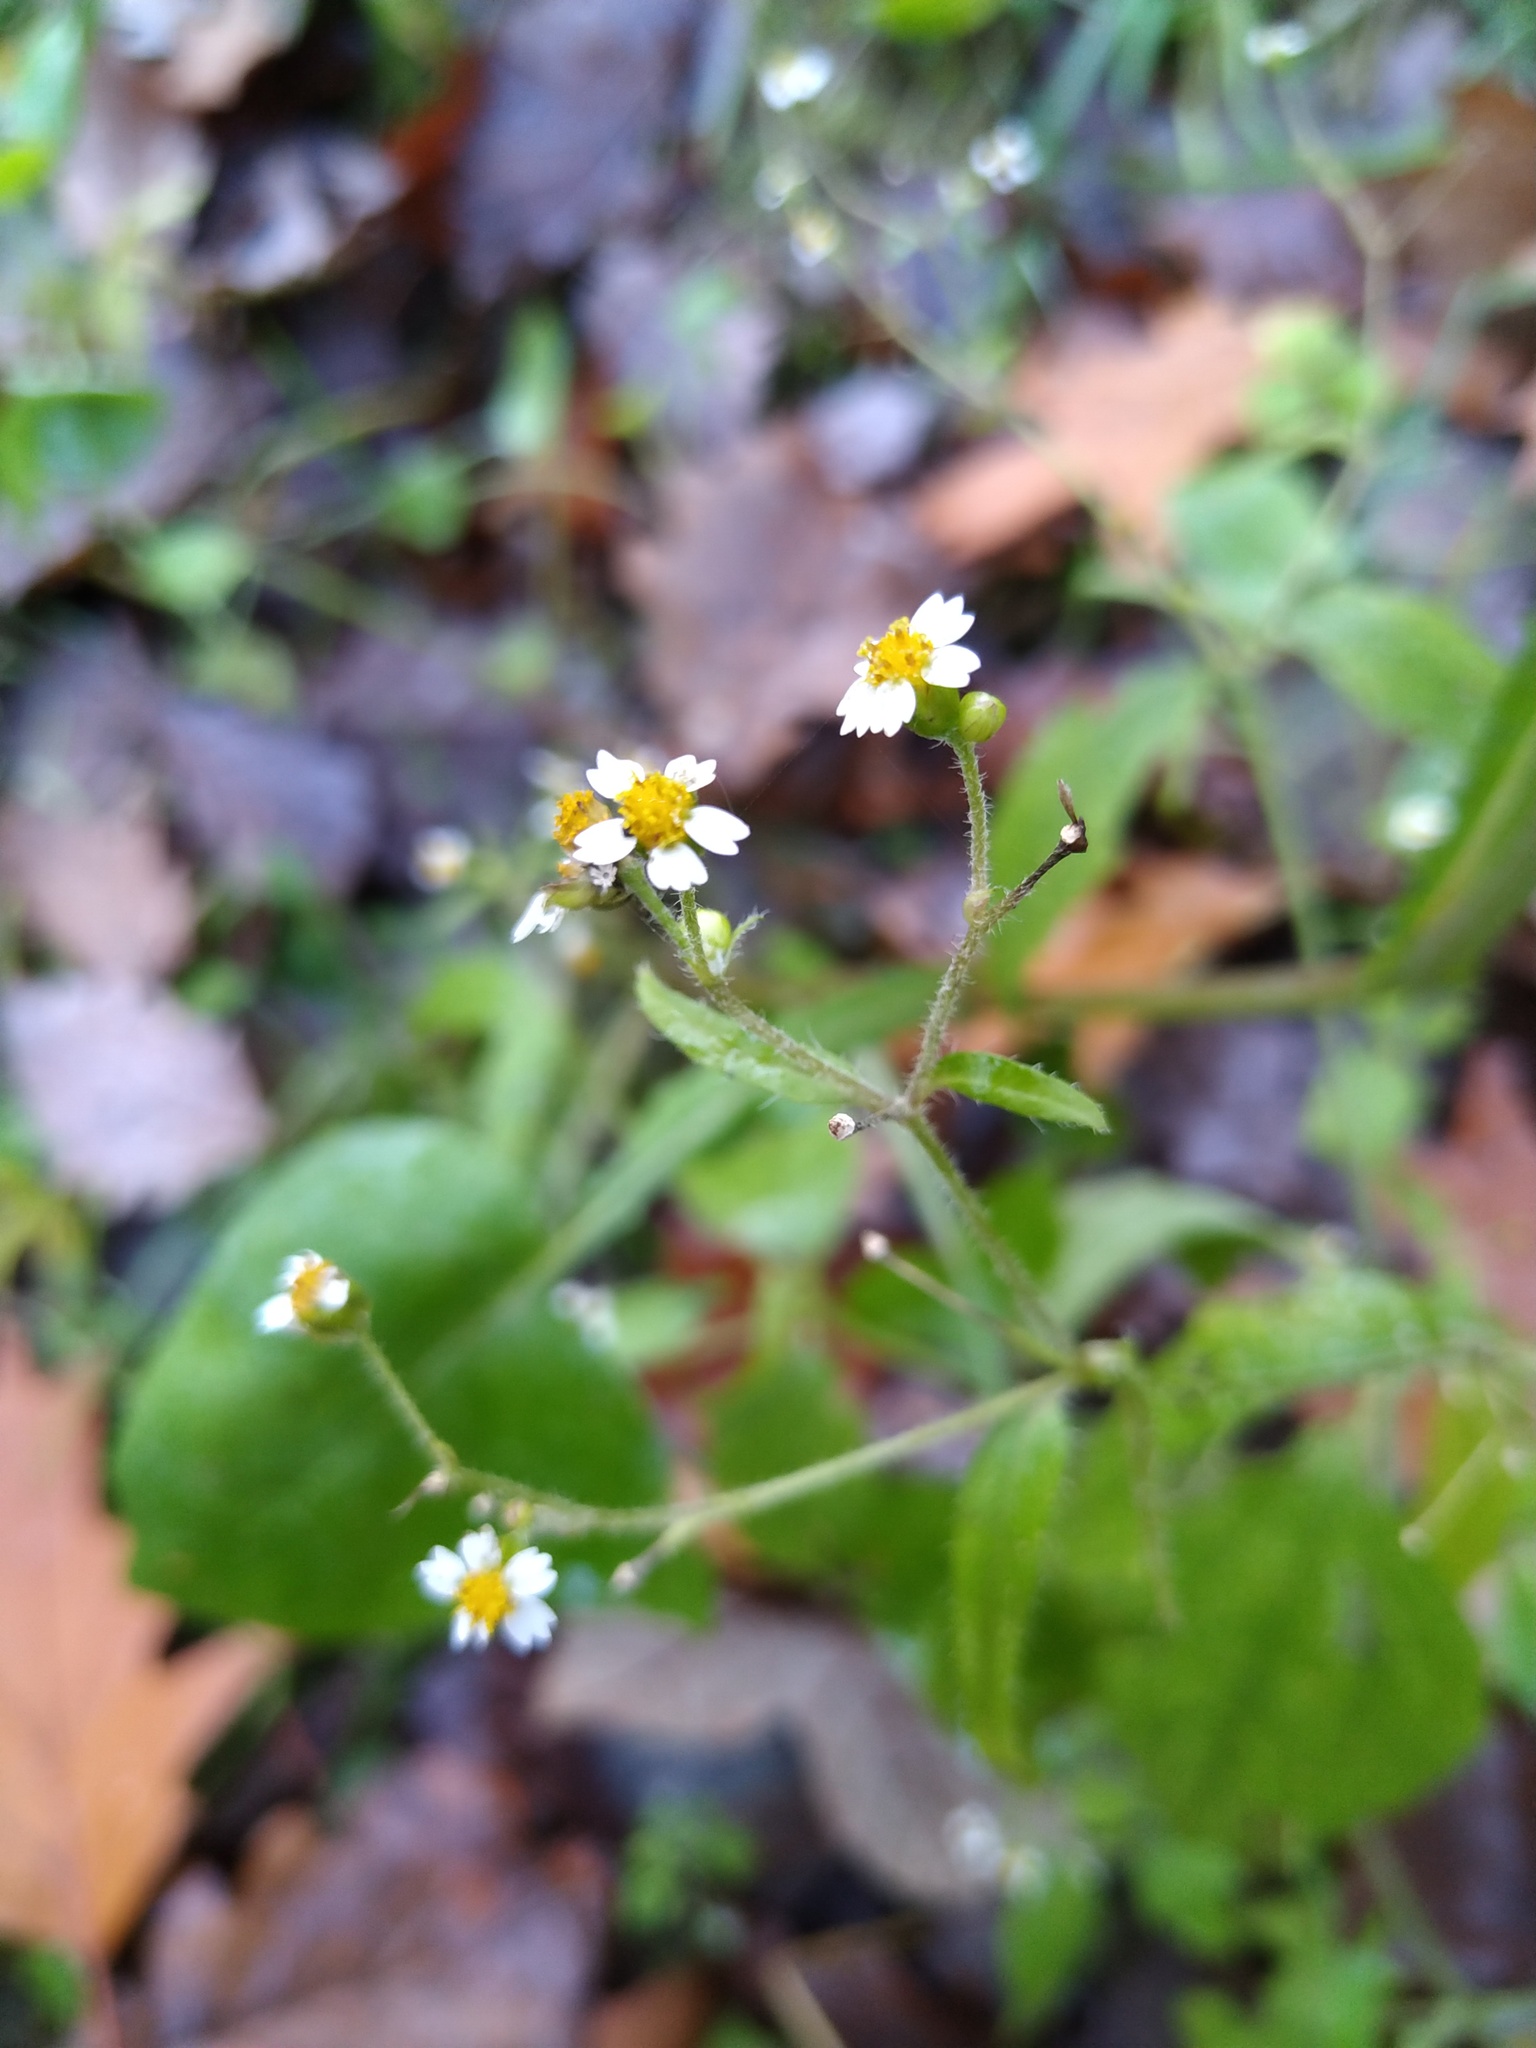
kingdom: Plantae
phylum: Tracheophyta
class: Magnoliopsida
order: Asterales
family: Asteraceae
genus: Galinsoga
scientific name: Galinsoga quadriradiata
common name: Shaggy soldier
